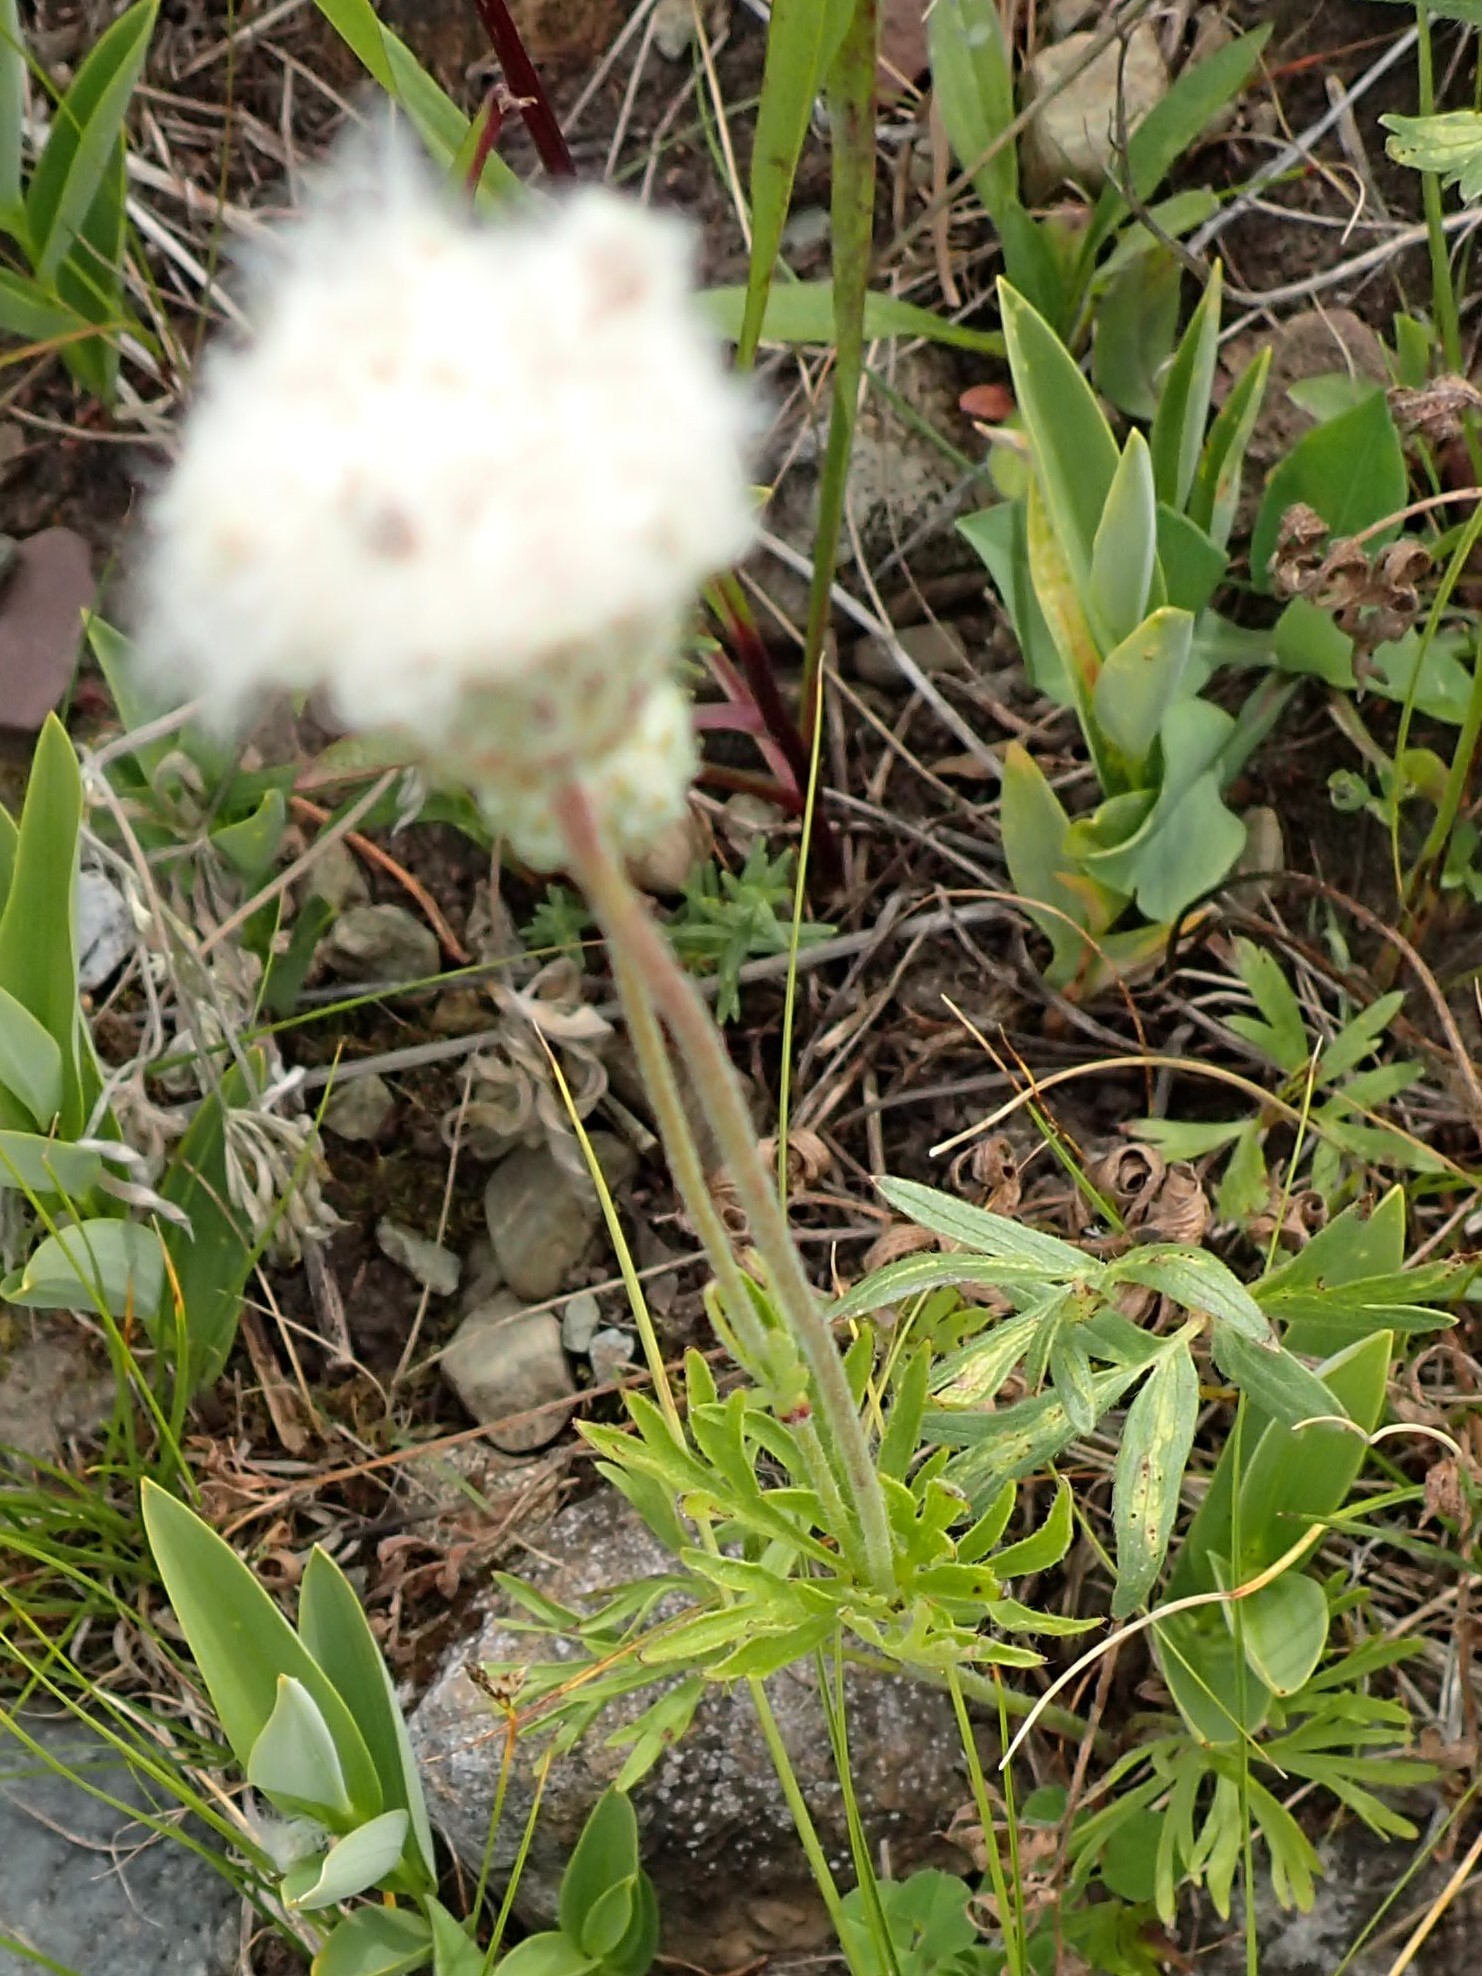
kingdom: Plantae
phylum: Tracheophyta
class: Magnoliopsida
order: Ranunculales
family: Ranunculaceae
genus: Anemone
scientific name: Anemone multifida
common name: Bird's-foot anemone
